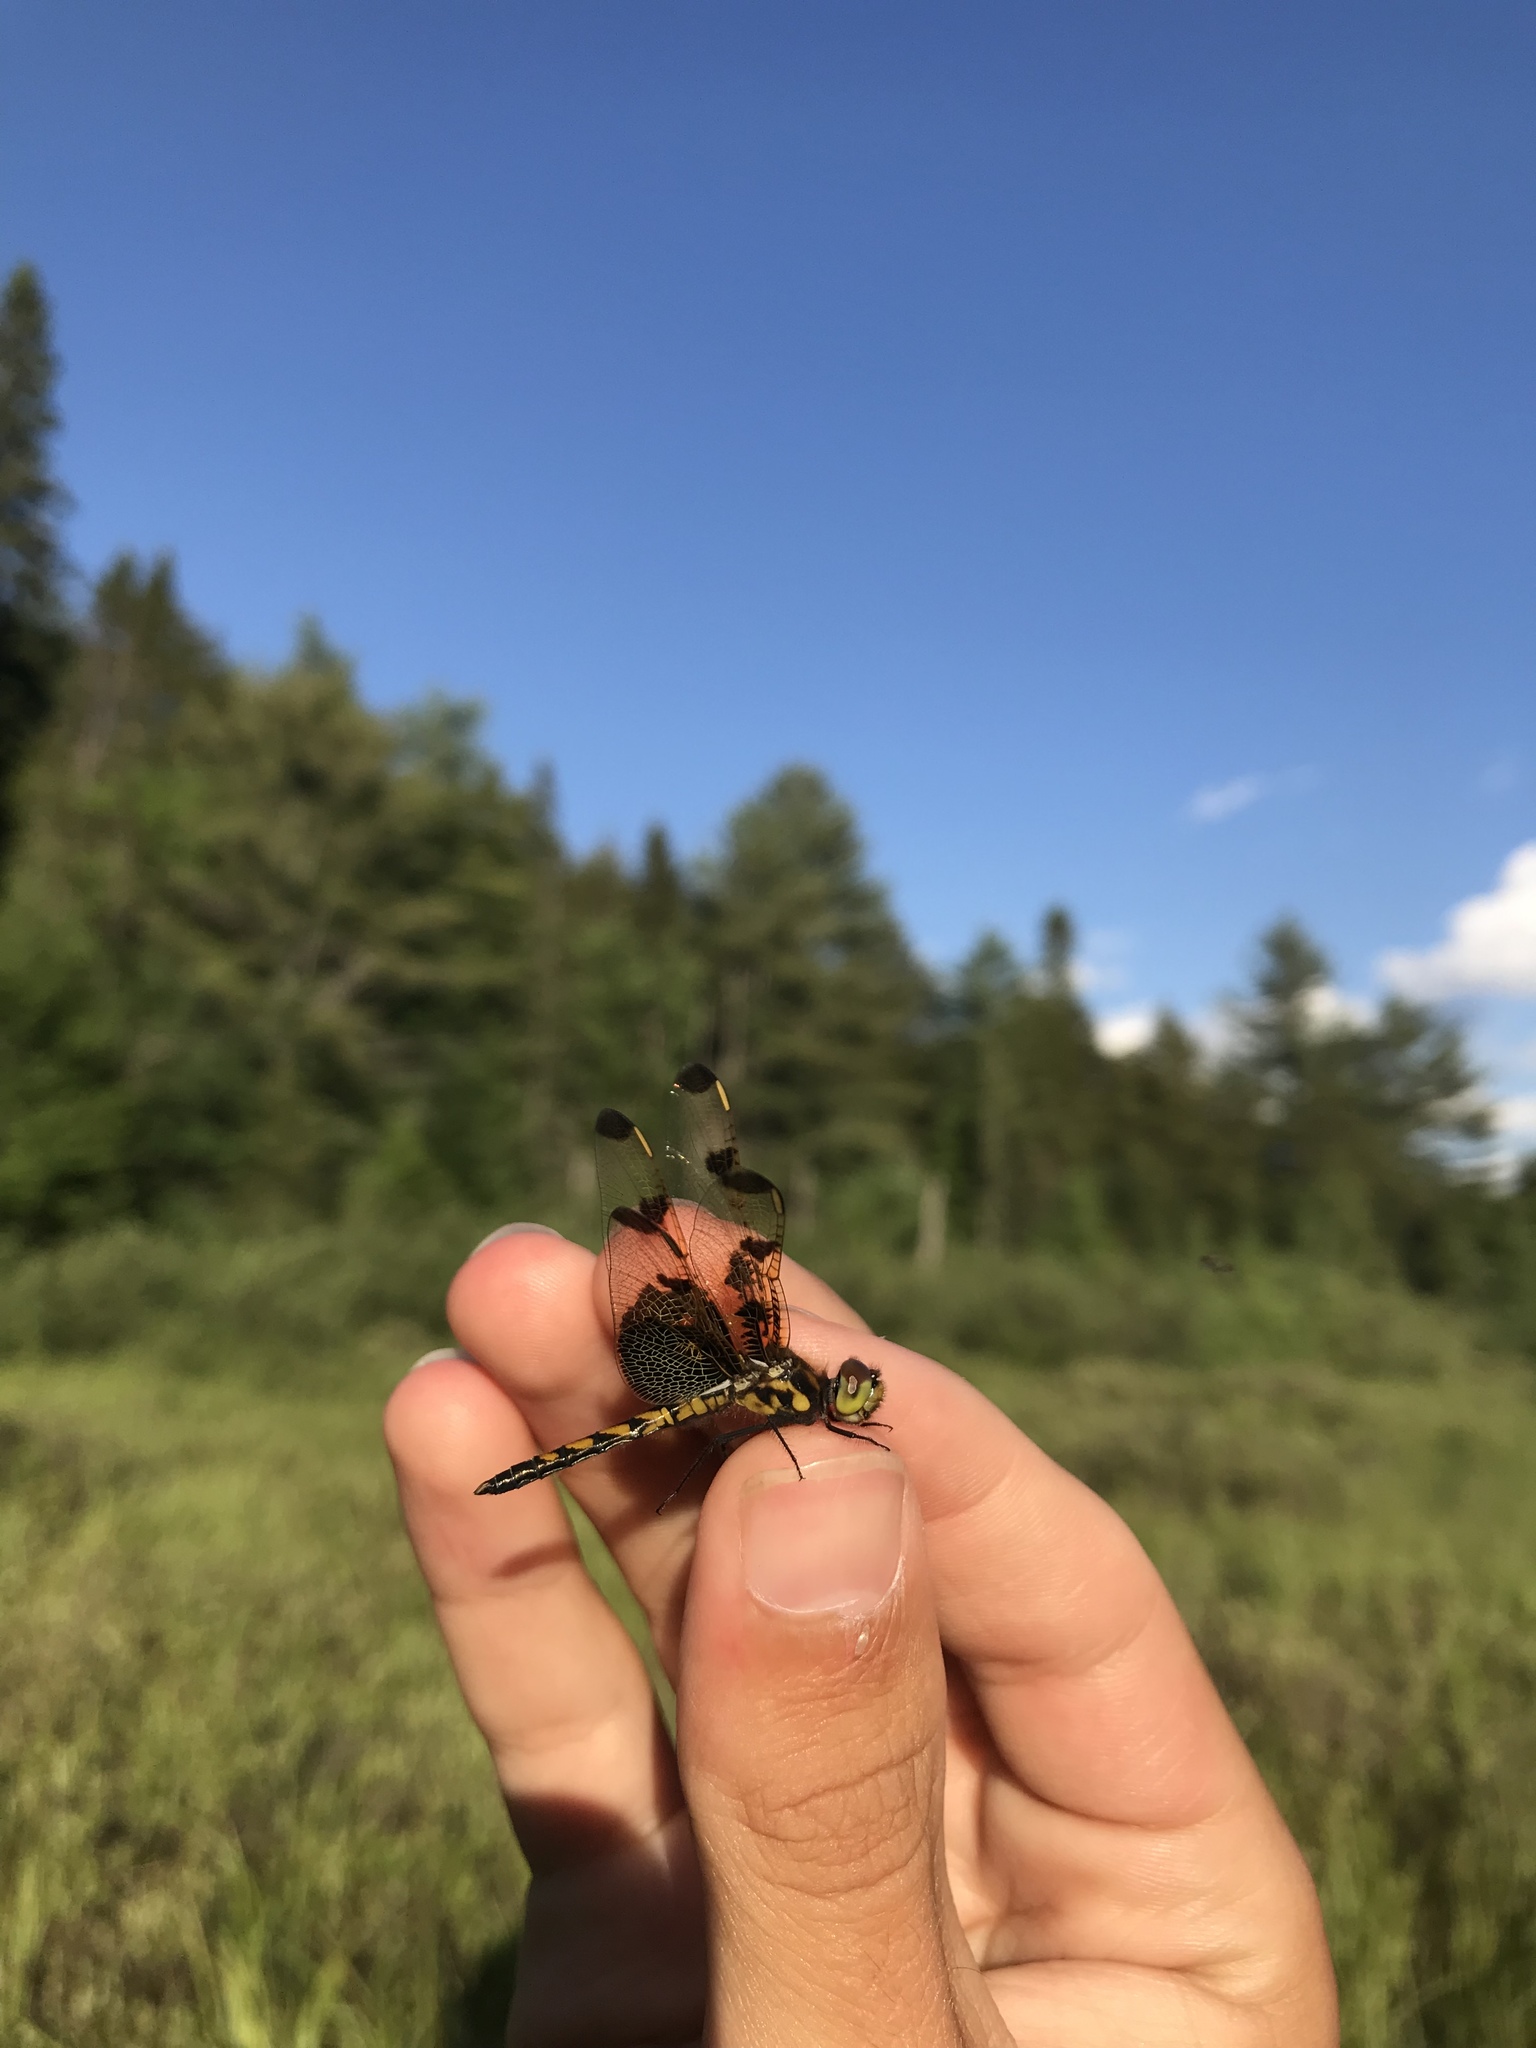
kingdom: Animalia
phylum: Arthropoda
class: Insecta
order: Odonata
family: Libellulidae
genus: Celithemis
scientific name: Celithemis elisa
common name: Calico pennant
